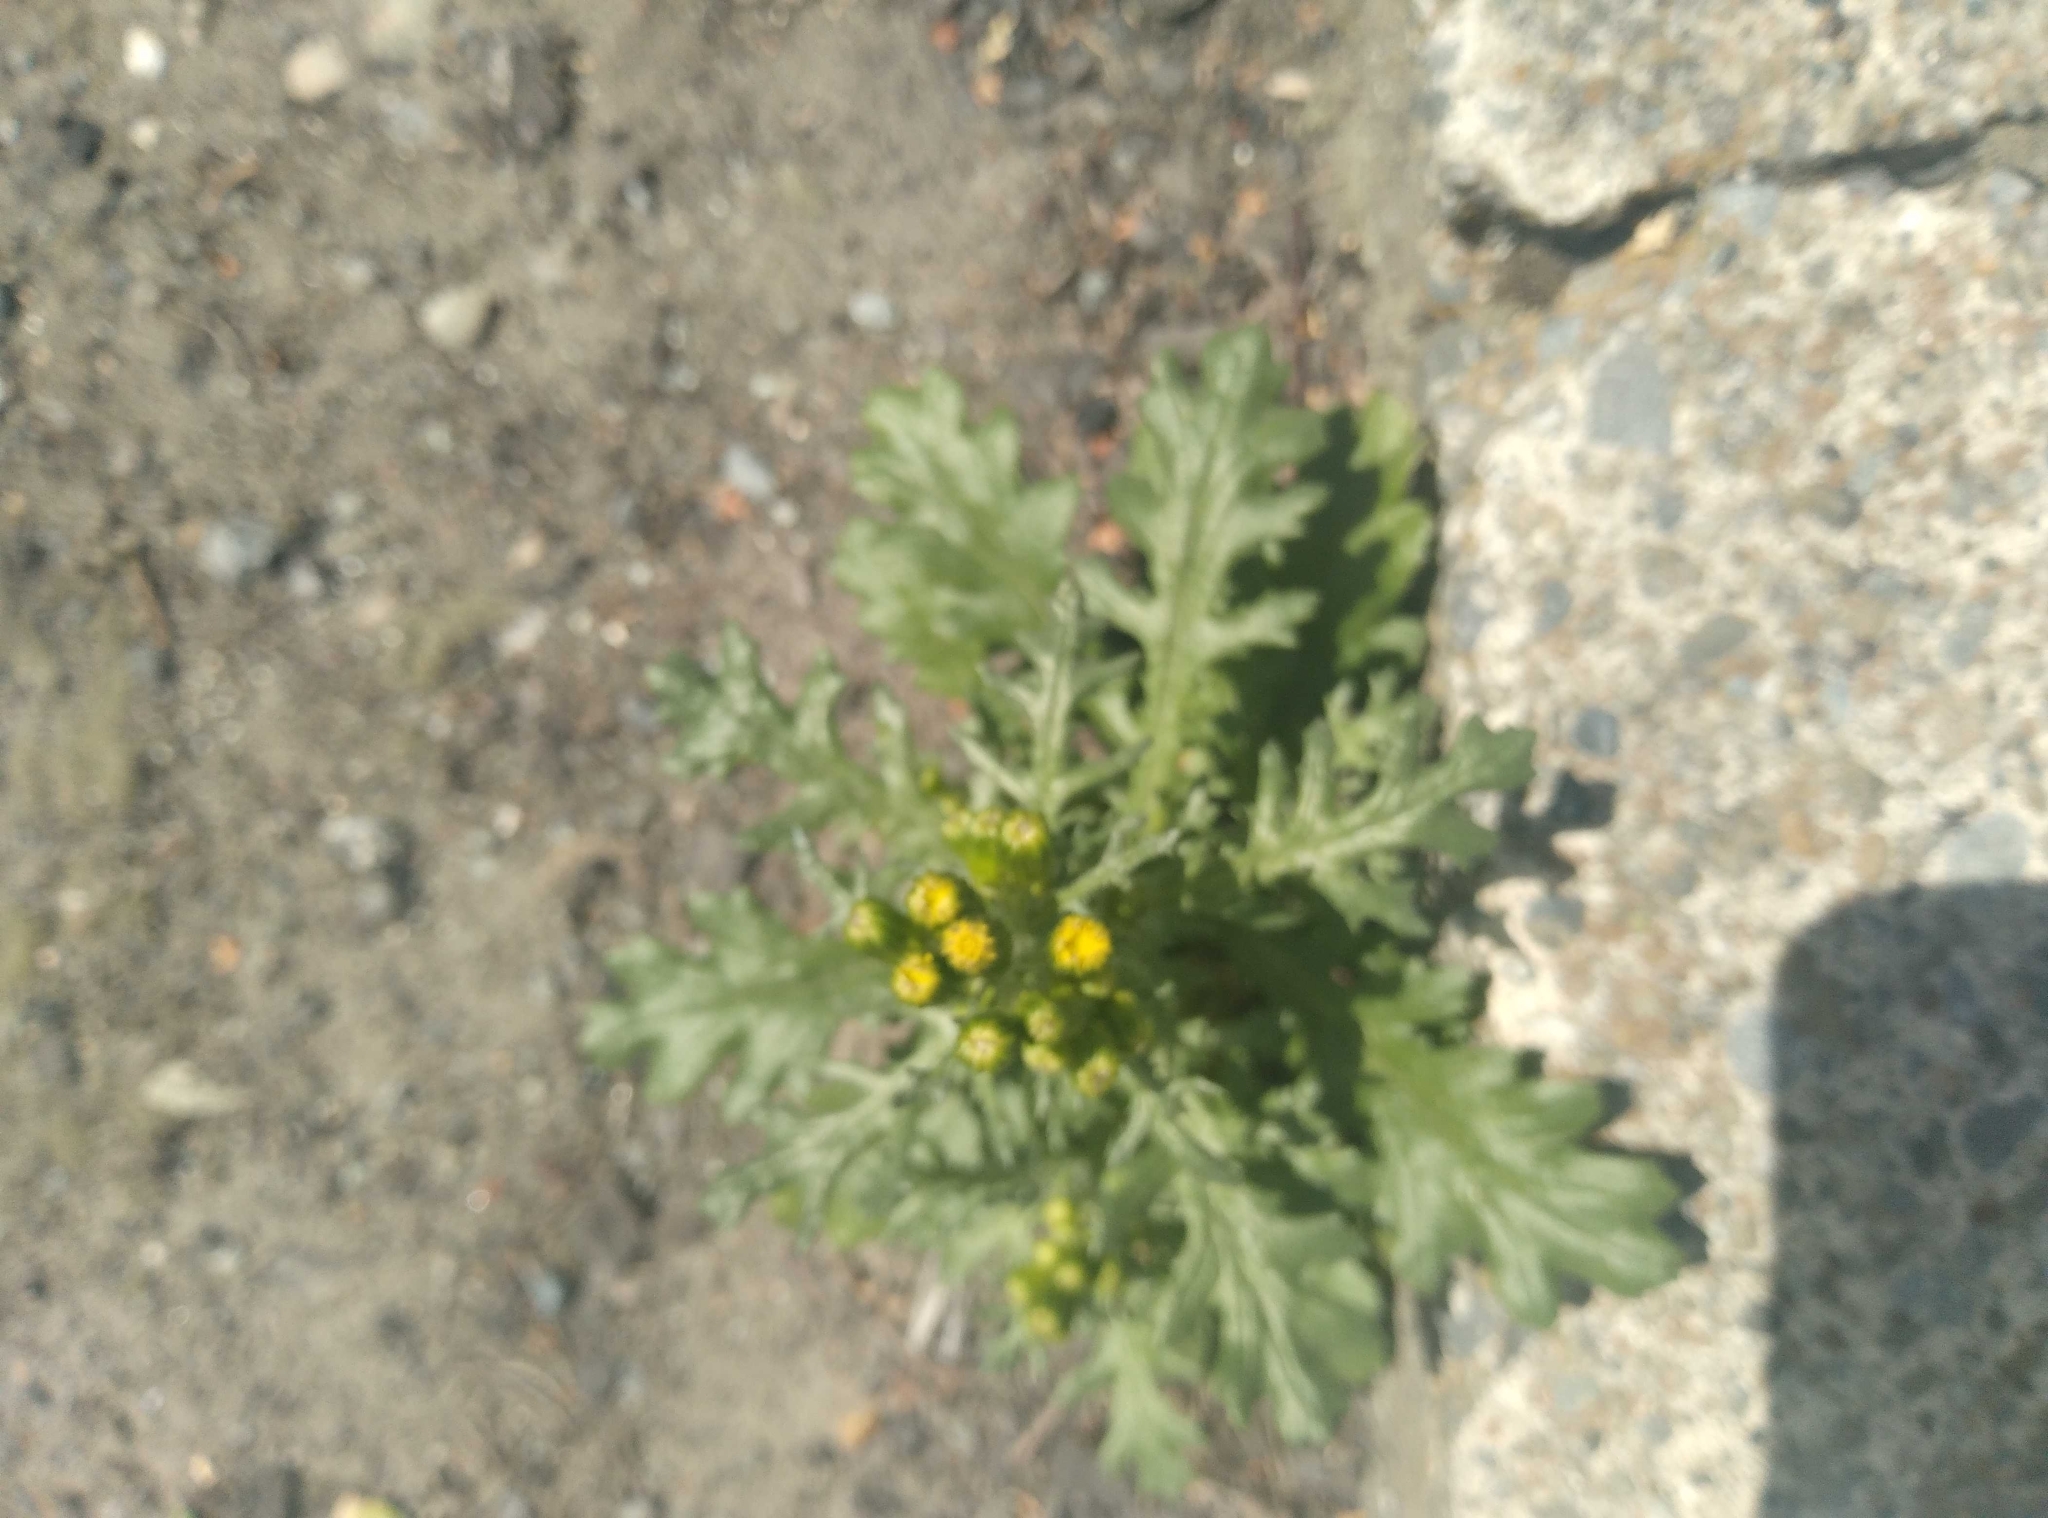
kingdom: Plantae
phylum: Tracheophyta
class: Magnoliopsida
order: Asterales
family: Asteraceae
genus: Senecio
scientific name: Senecio vulgaris
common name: Old-man-in-the-spring
